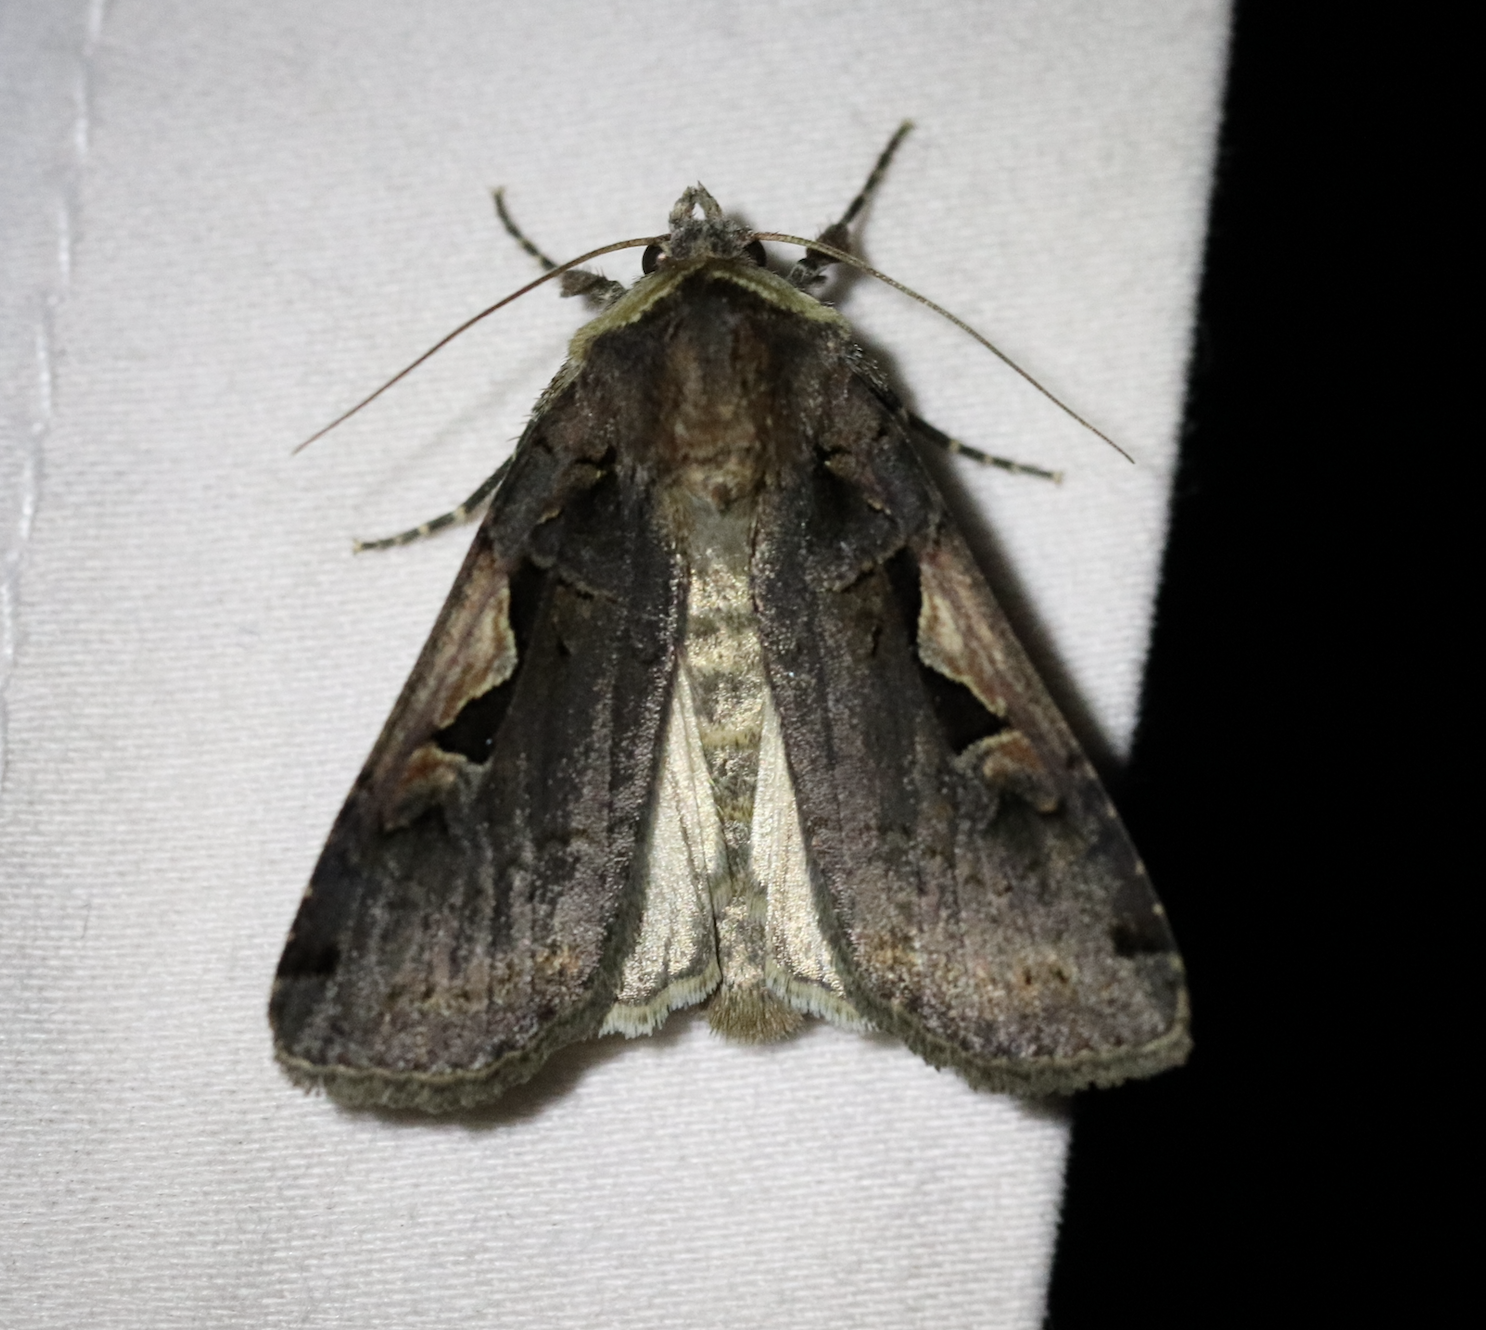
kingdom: Animalia
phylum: Arthropoda
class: Insecta
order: Lepidoptera
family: Noctuidae
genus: Xestia
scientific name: Xestia c-nigrum
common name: Setaceous hebrew character
